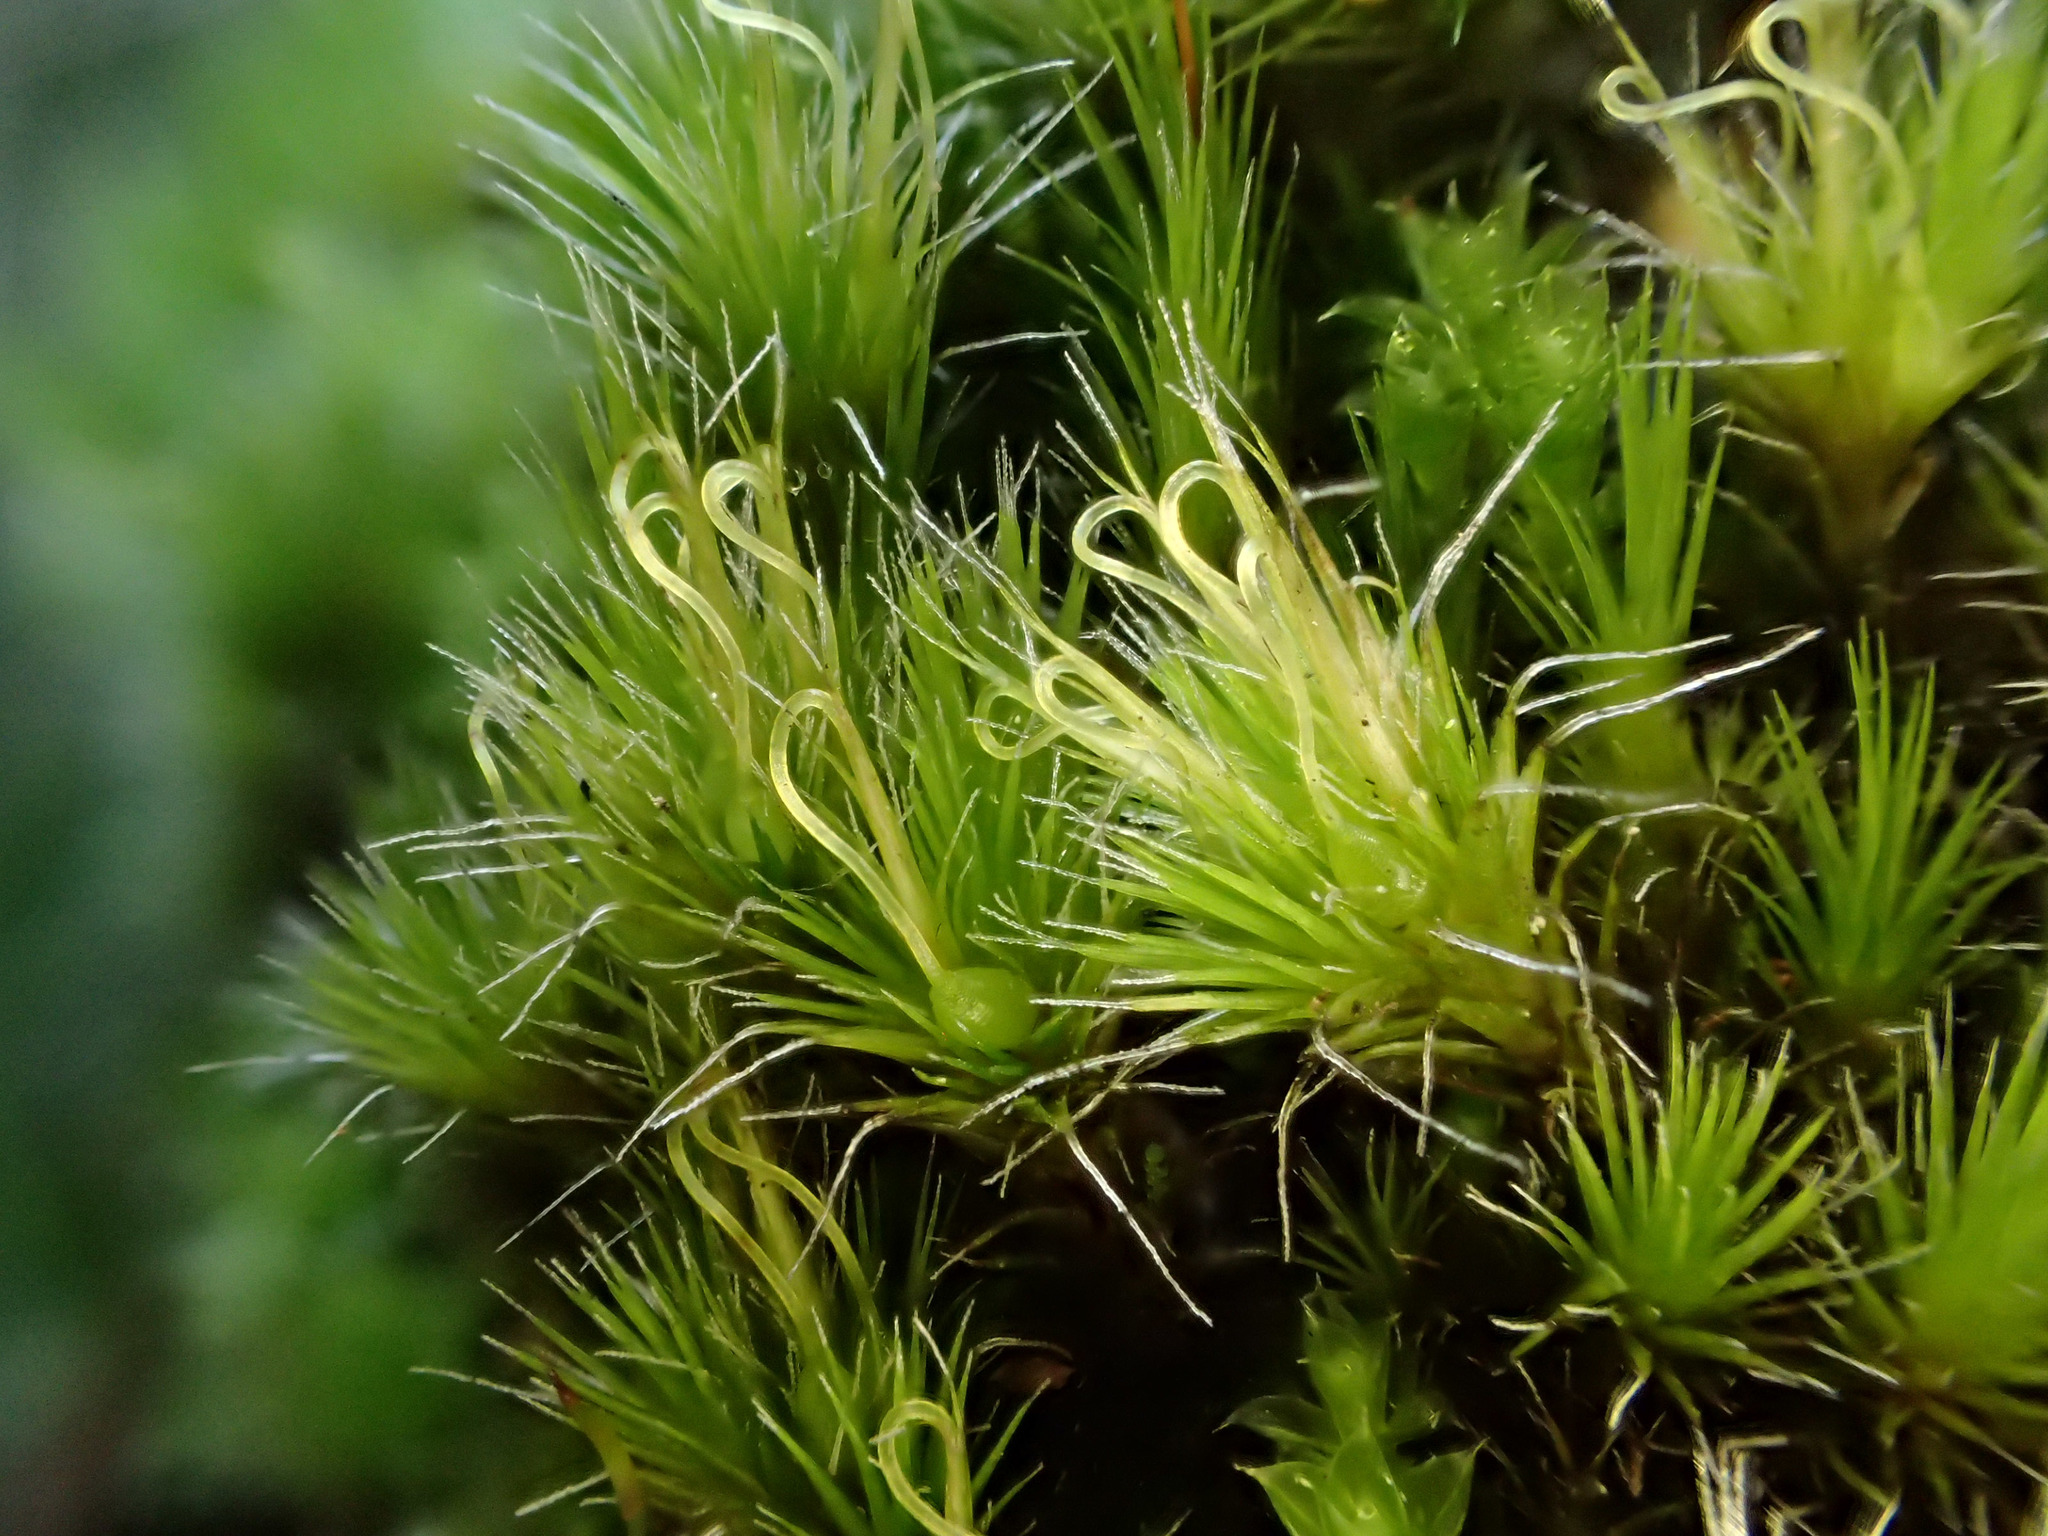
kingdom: Plantae
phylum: Bryophyta
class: Bryopsida
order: Grimmiales
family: Grimmiaceae
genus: Grimmia
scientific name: Grimmia pulvinata
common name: Grey-cushioned grimmia
